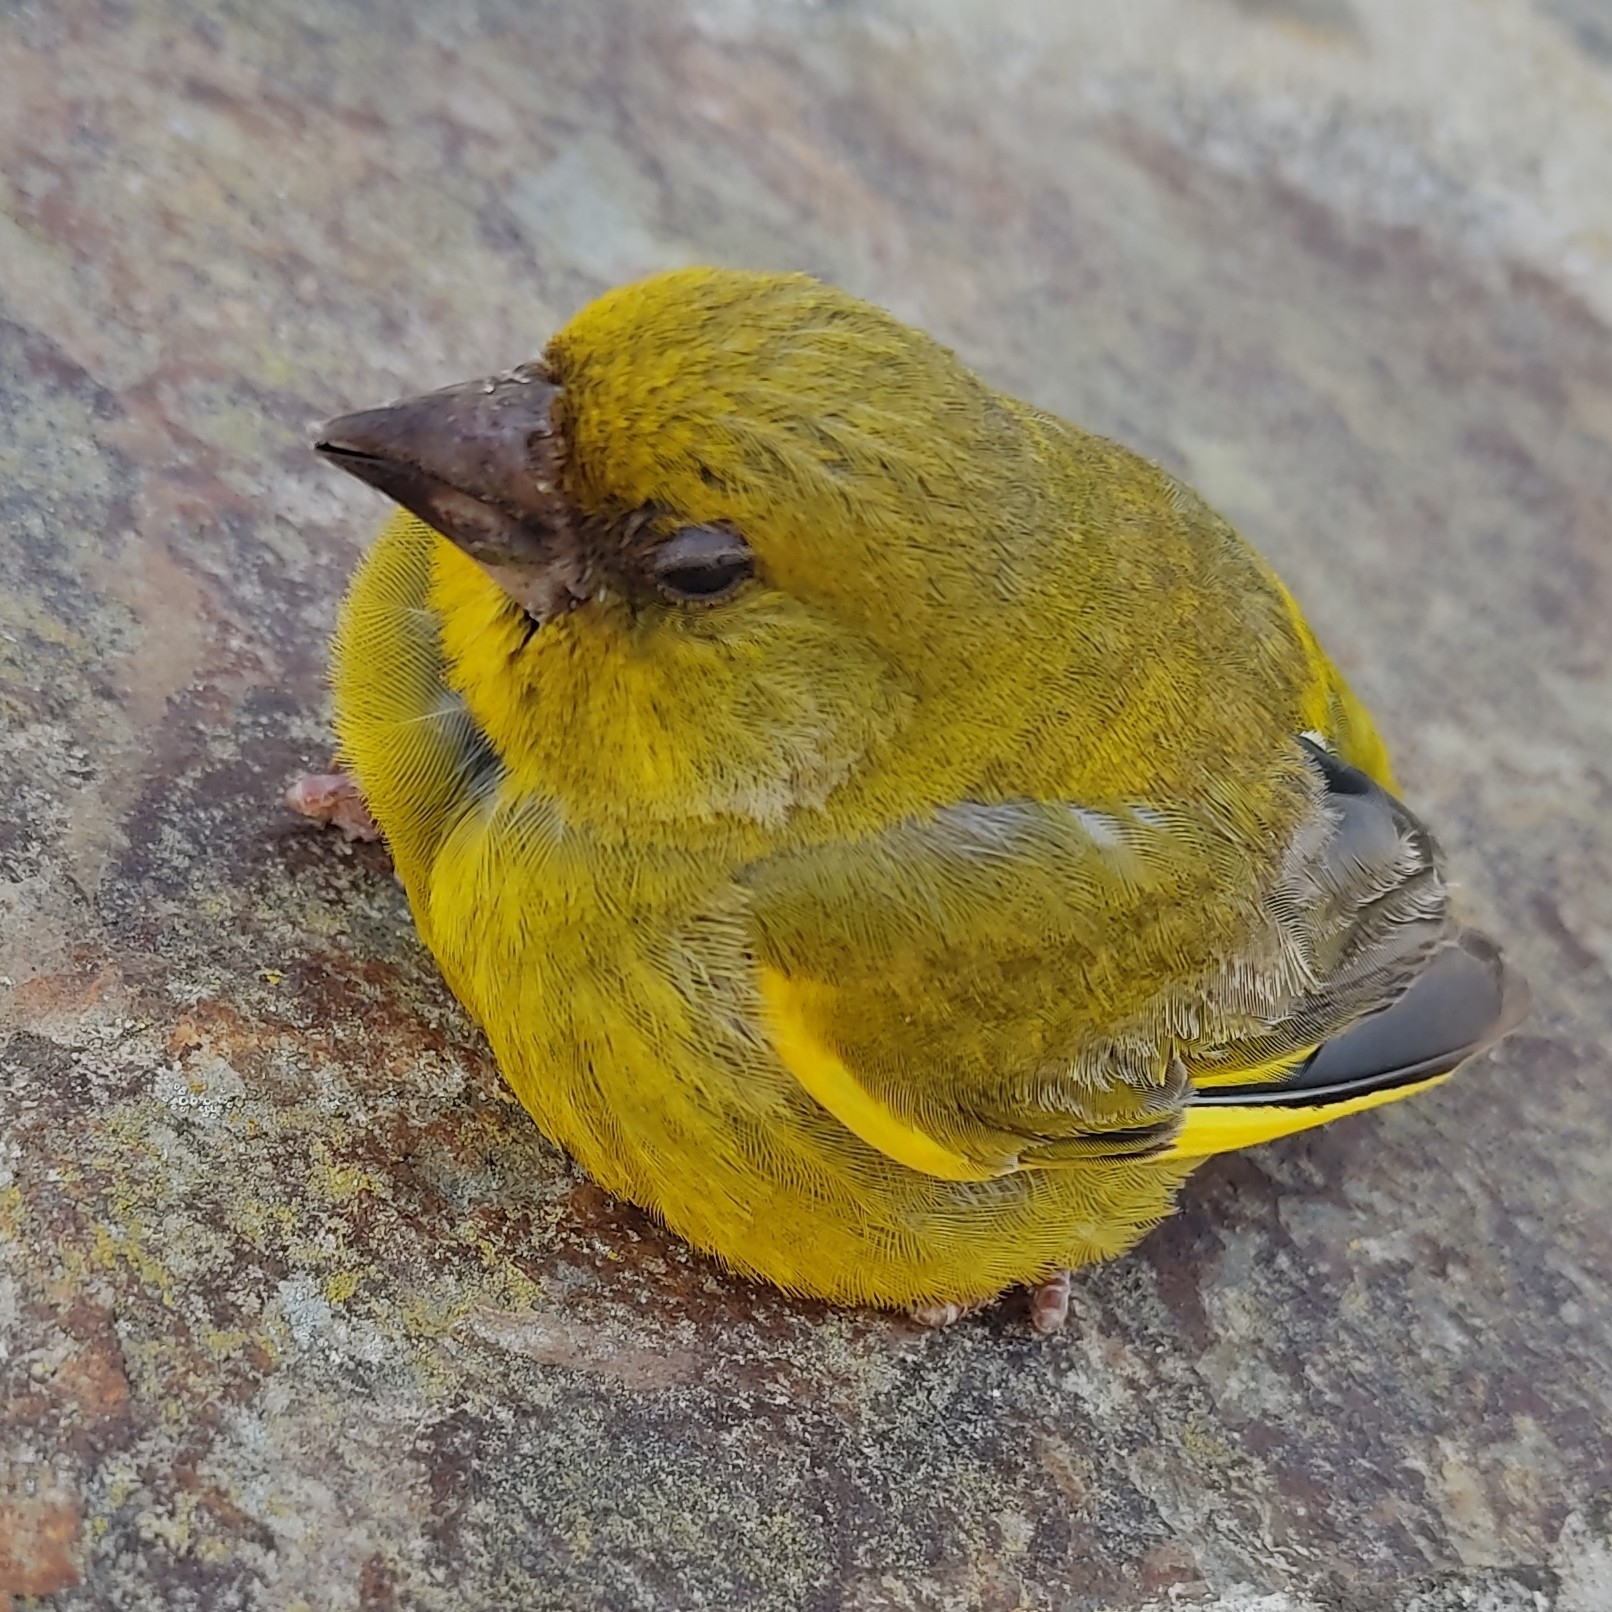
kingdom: Plantae
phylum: Tracheophyta
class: Liliopsida
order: Poales
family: Poaceae
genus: Chloris
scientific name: Chloris chloris
